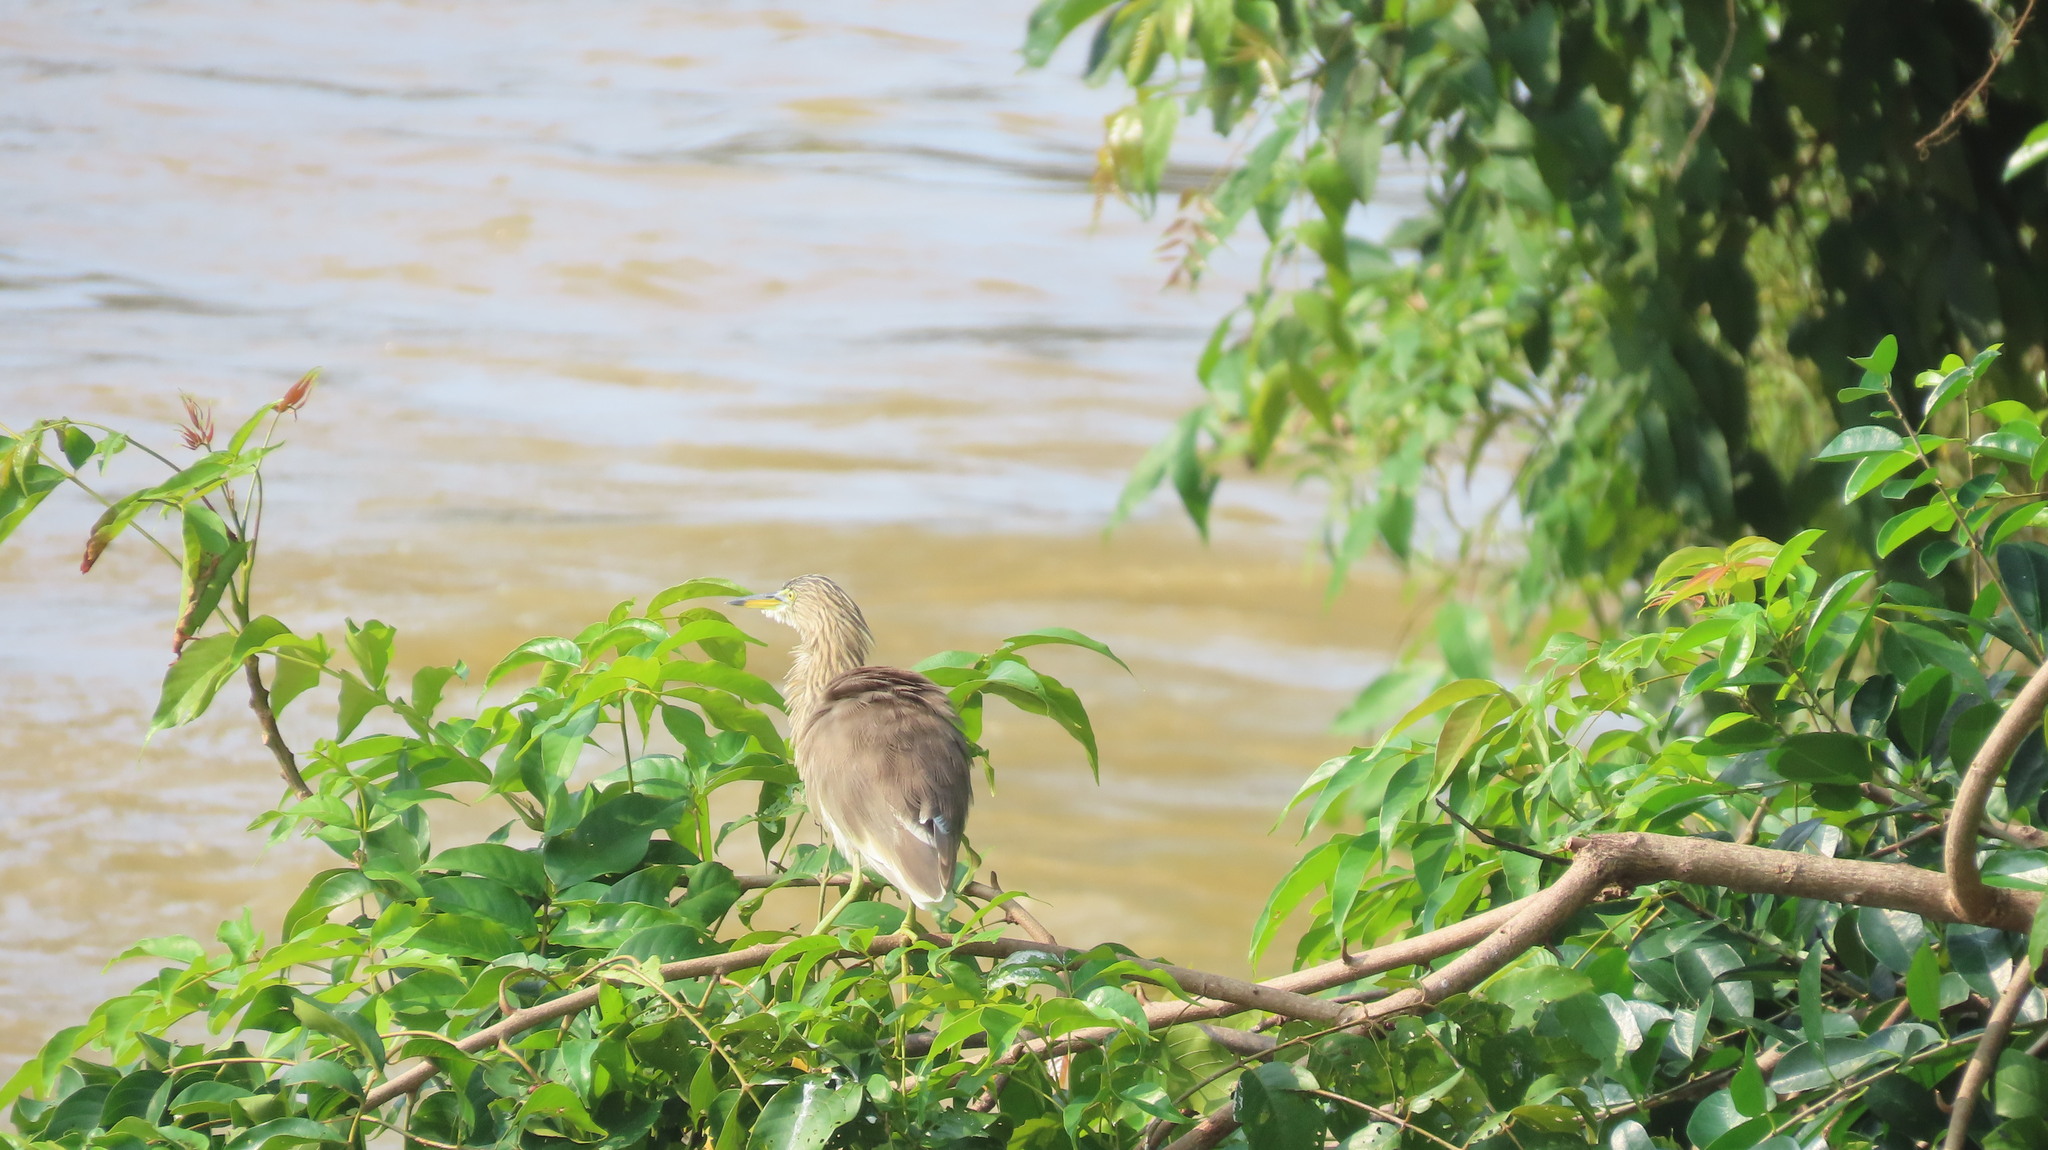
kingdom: Animalia
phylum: Chordata
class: Aves
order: Pelecaniformes
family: Ardeidae
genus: Ardeola
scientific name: Ardeola grayii
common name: Indian pond heron
